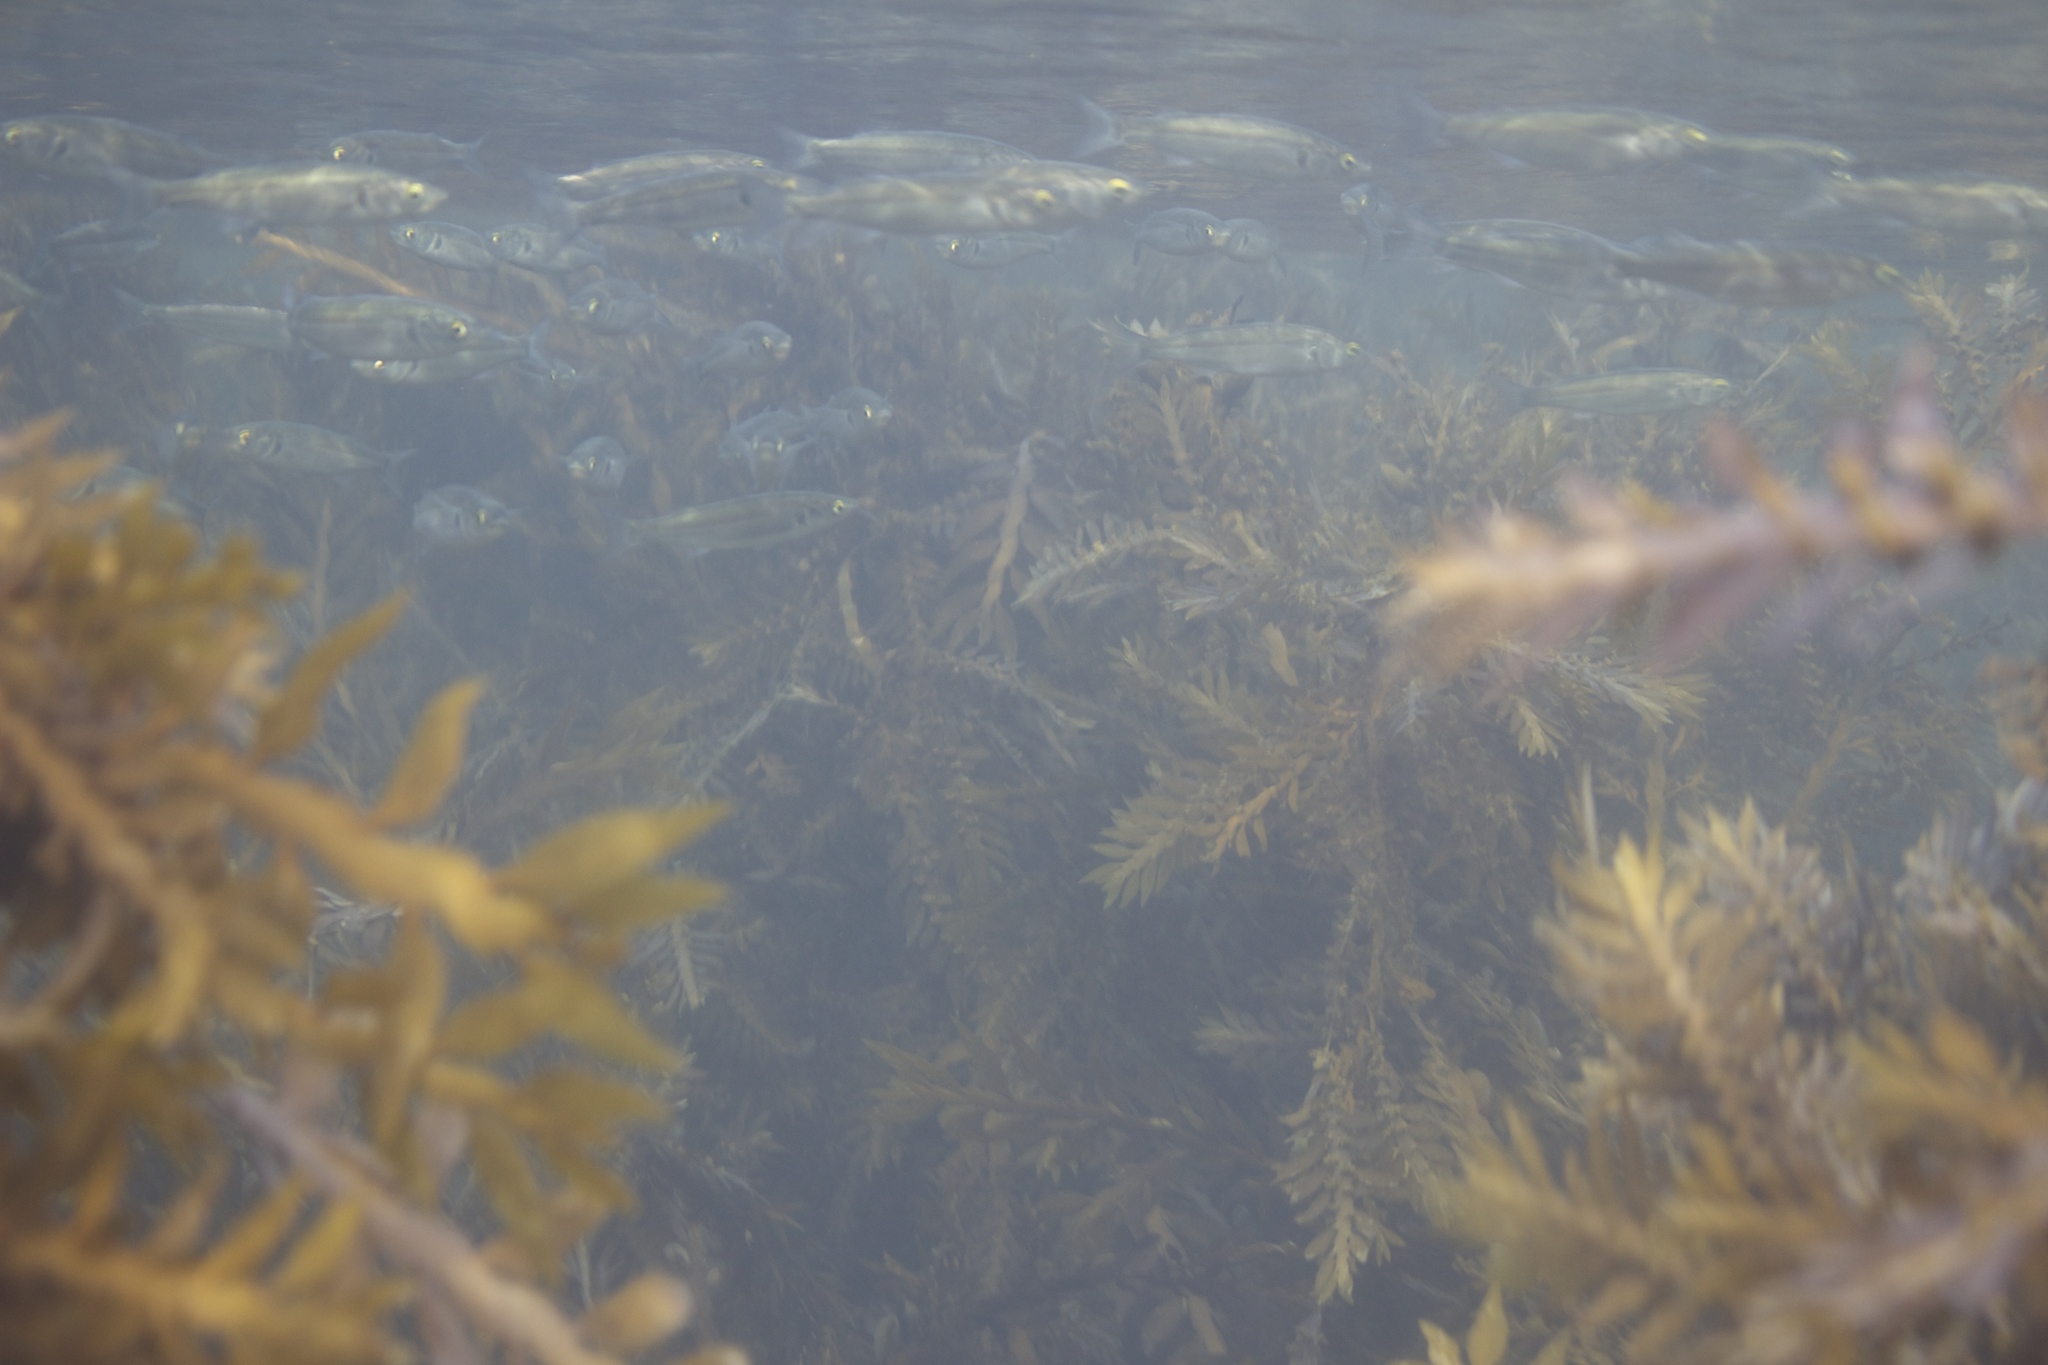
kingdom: Animalia
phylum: Chordata
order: Mugiliformes
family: Mugilidae
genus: Aldrichetta
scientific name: Aldrichetta forsteri
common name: Yellow-eye mullet
